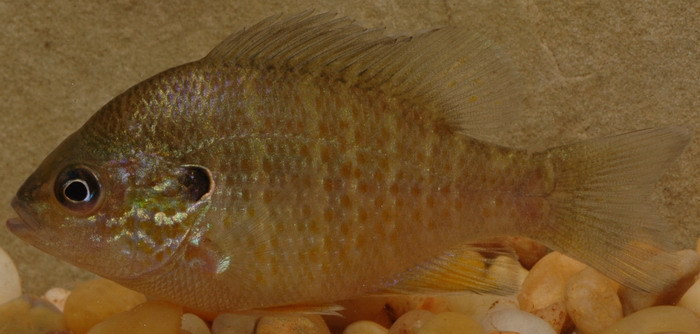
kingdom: Animalia
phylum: Chordata
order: Perciformes
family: Centrarchidae
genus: Lepomis
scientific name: Lepomis megalotis
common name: Longear sunfish
